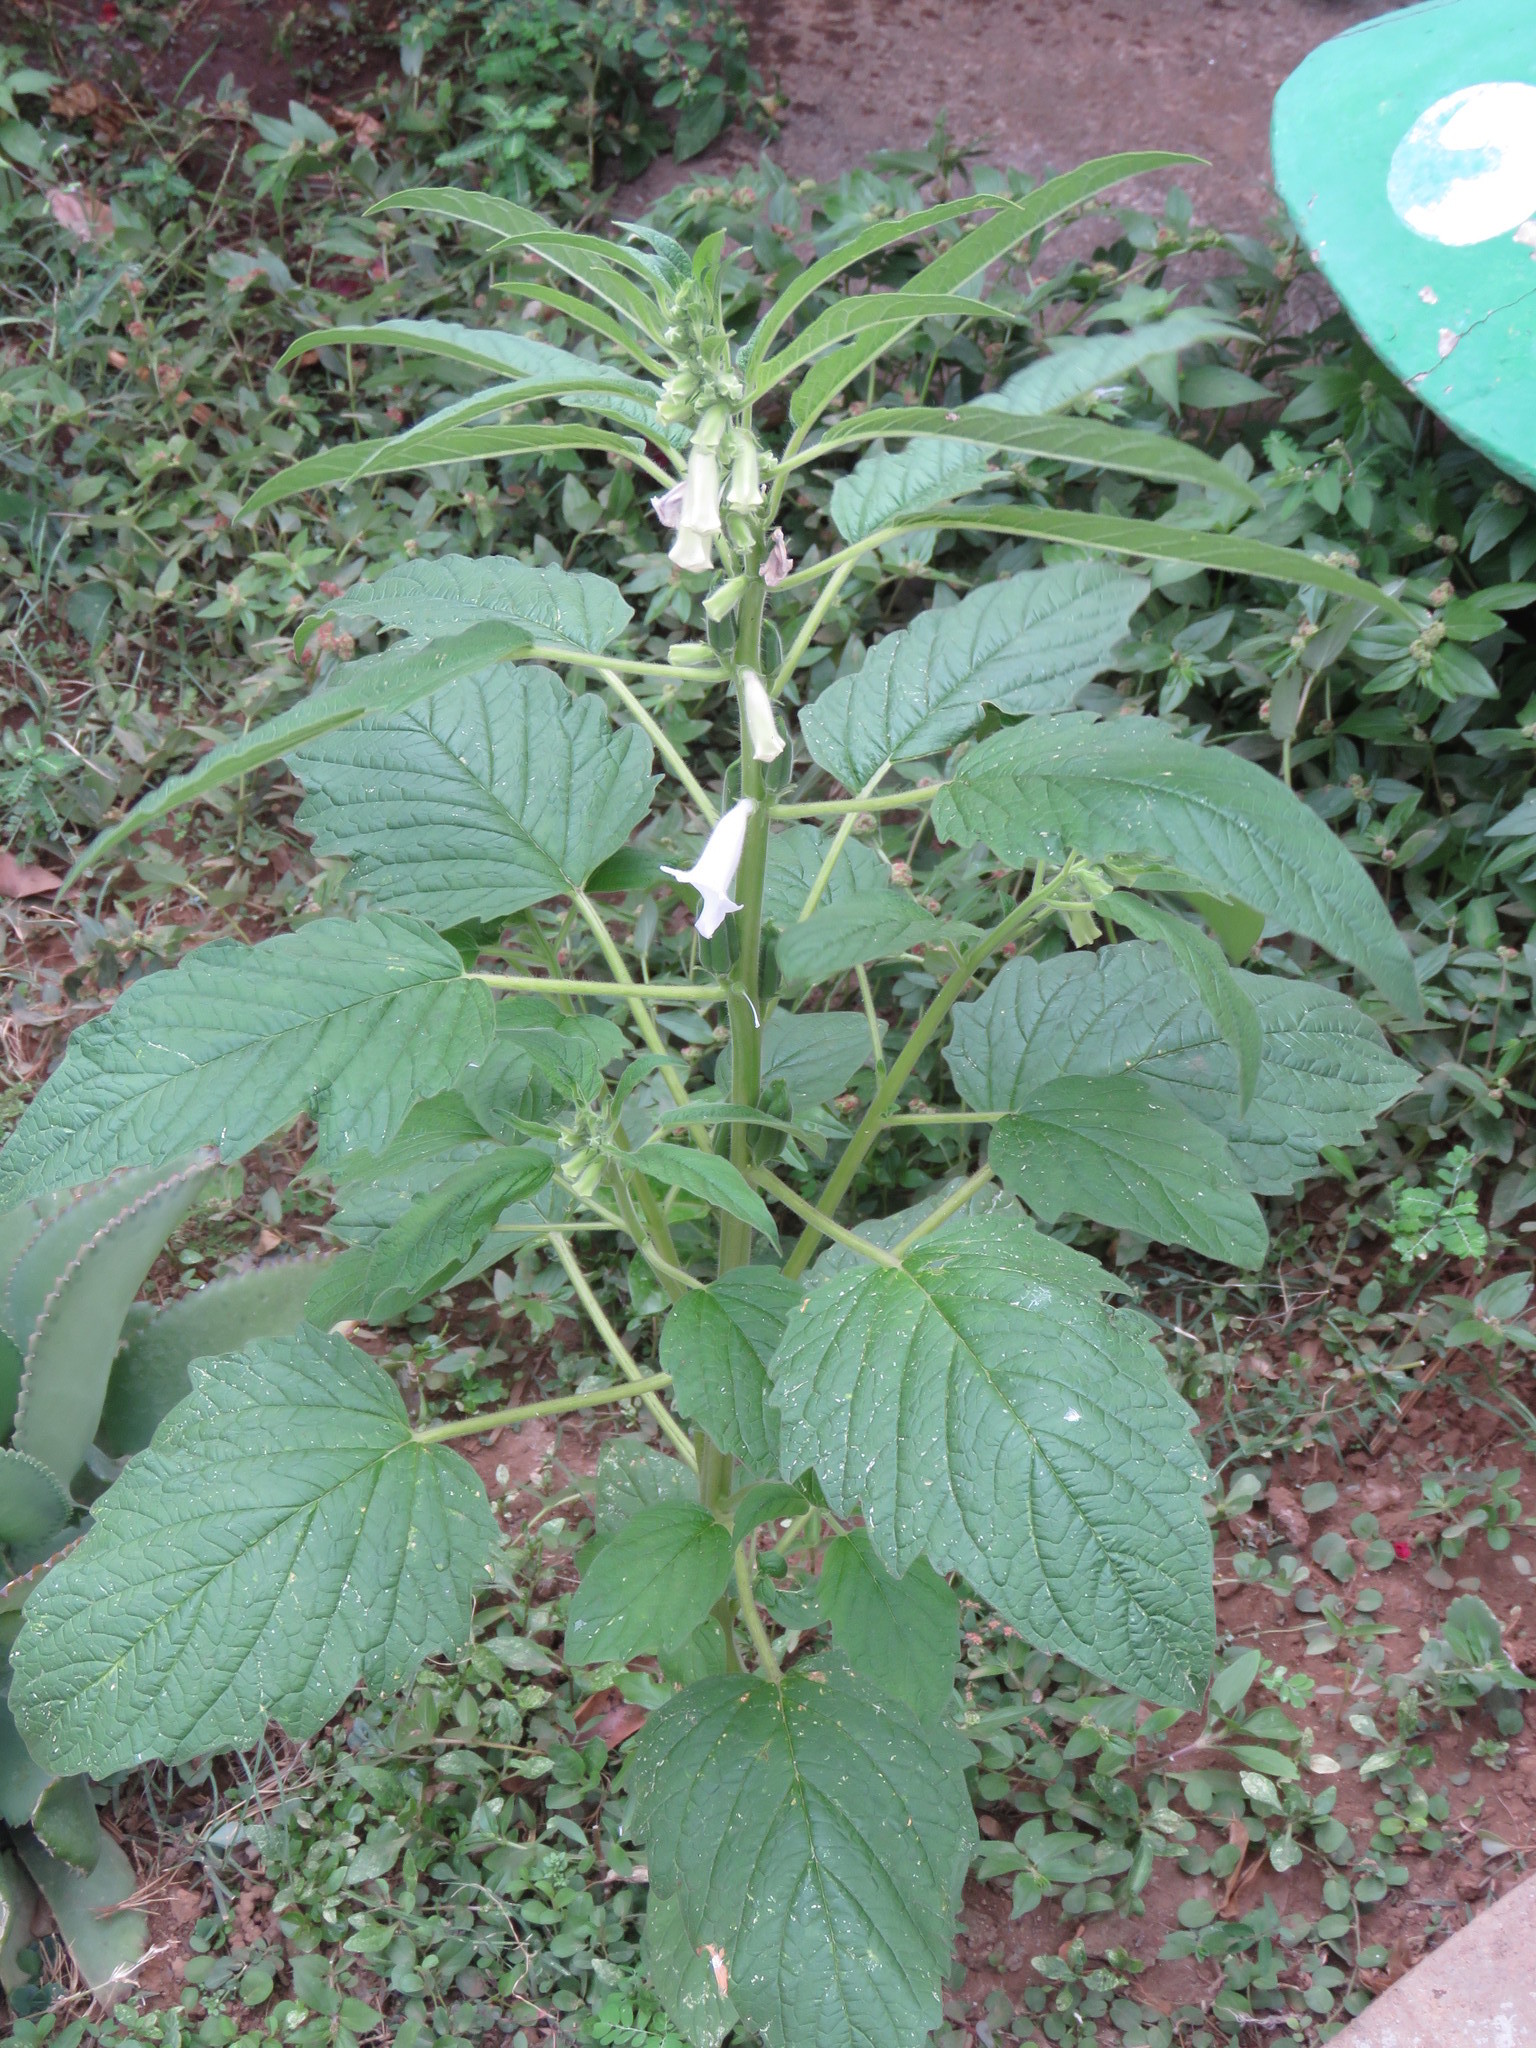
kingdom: Plantae
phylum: Tracheophyta
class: Magnoliopsida
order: Lamiales
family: Pedaliaceae
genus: Sesamum
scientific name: Sesamum indicum
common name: Sesame
